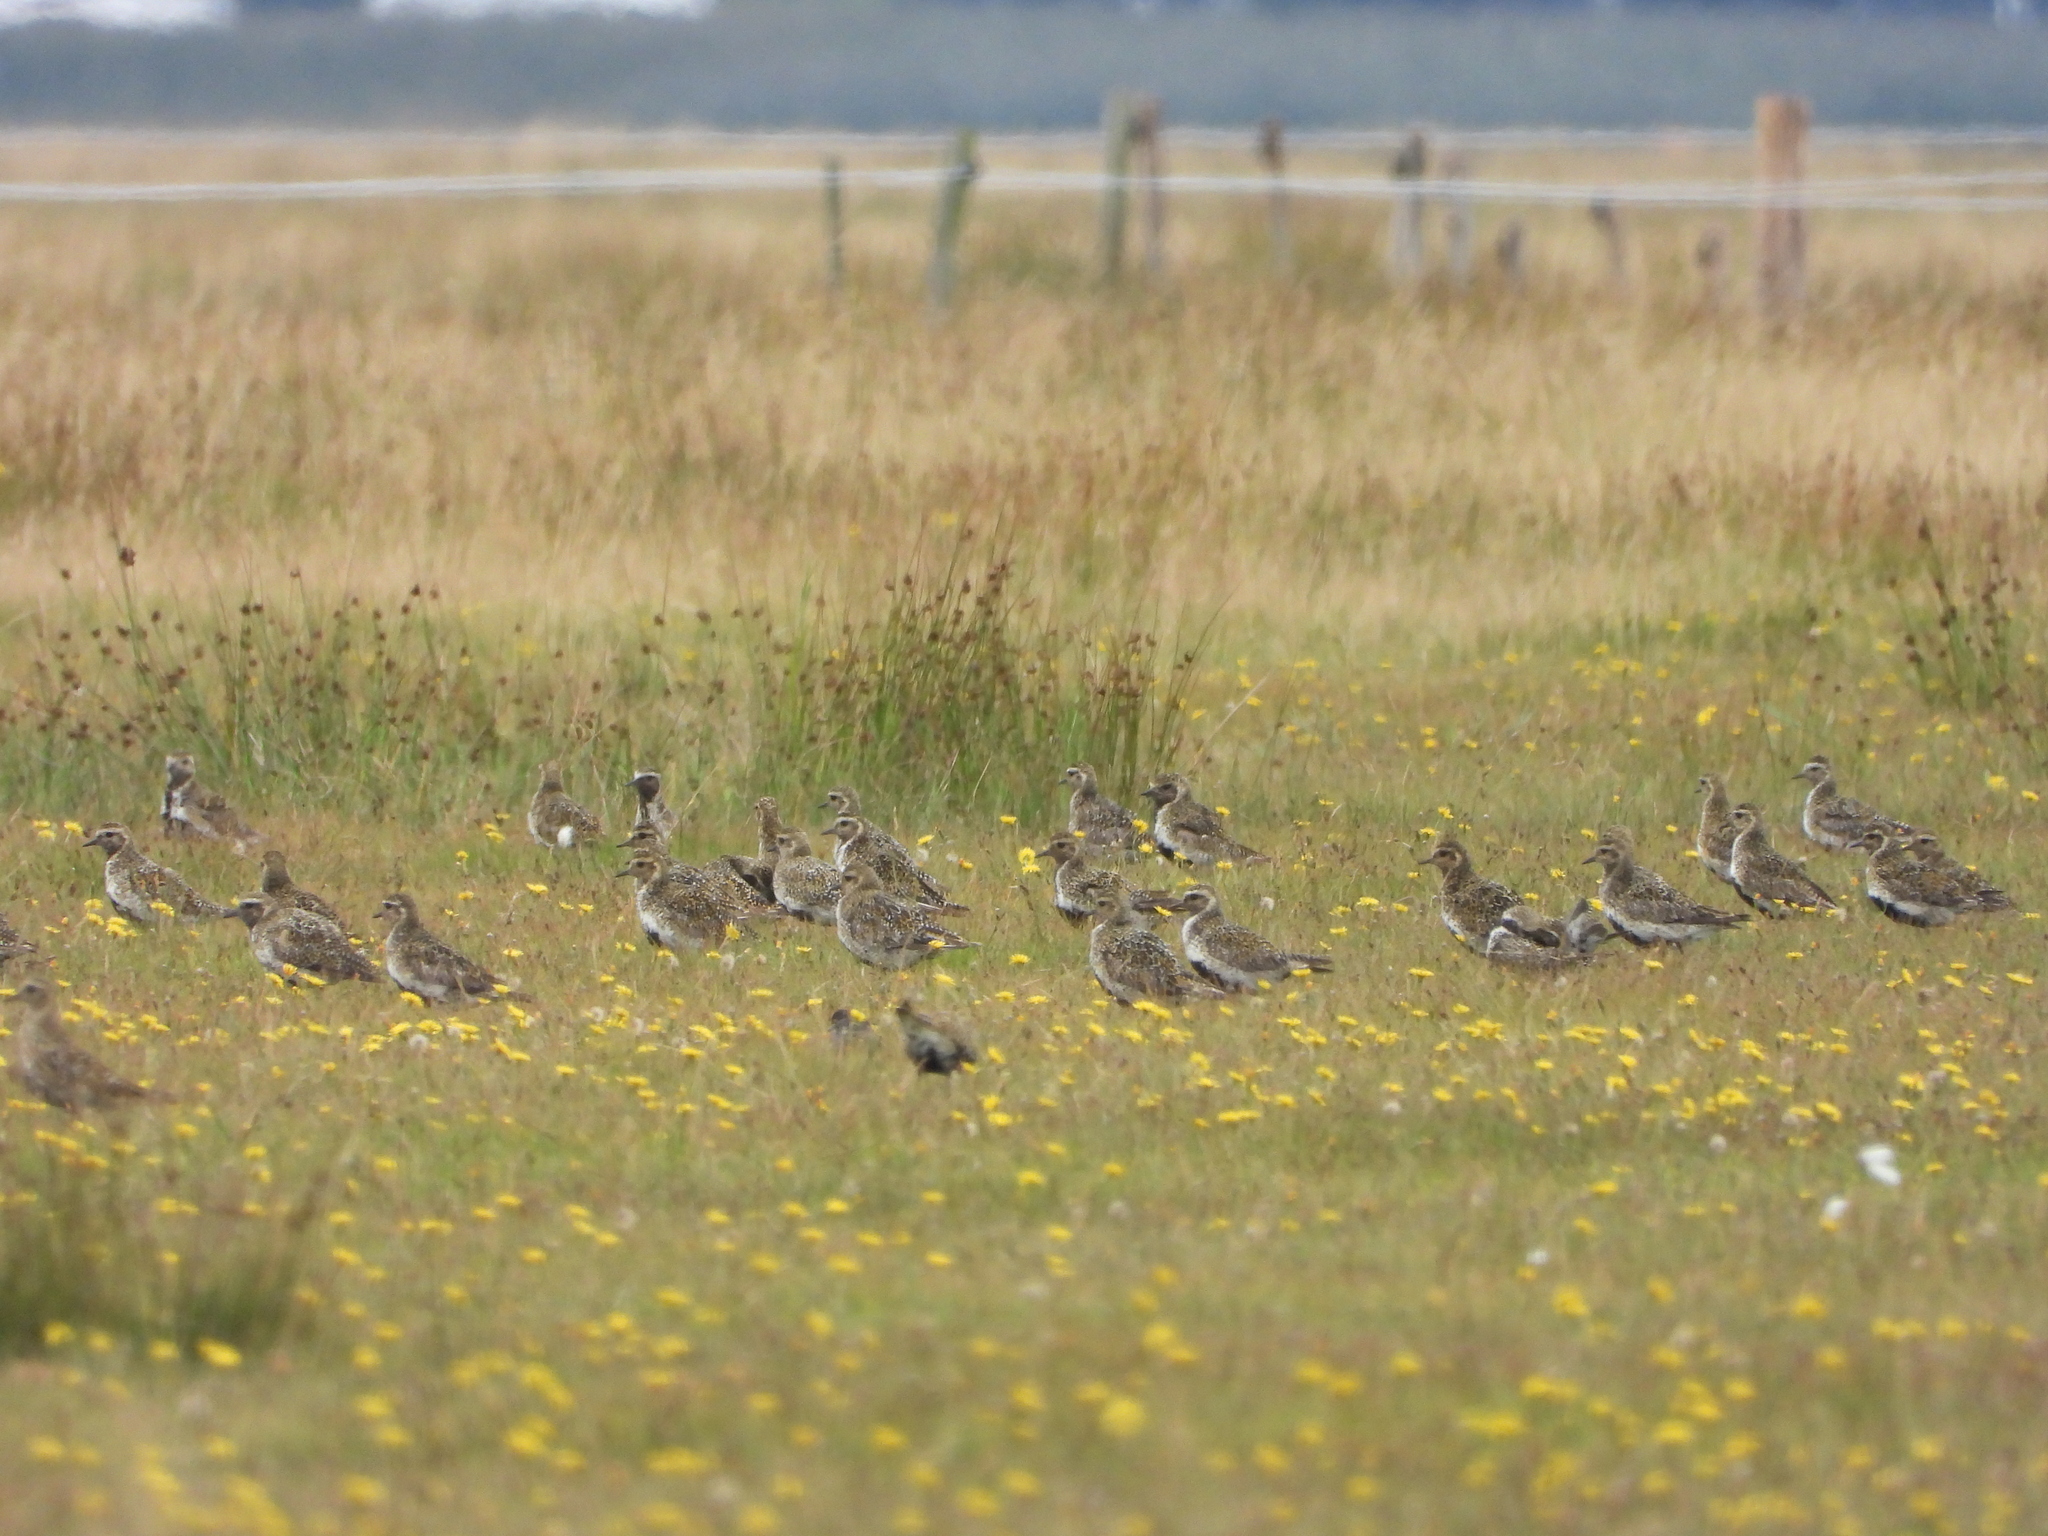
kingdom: Animalia
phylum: Chordata
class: Aves
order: Charadriiformes
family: Charadriidae
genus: Pluvialis
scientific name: Pluvialis apricaria
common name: European golden plover
